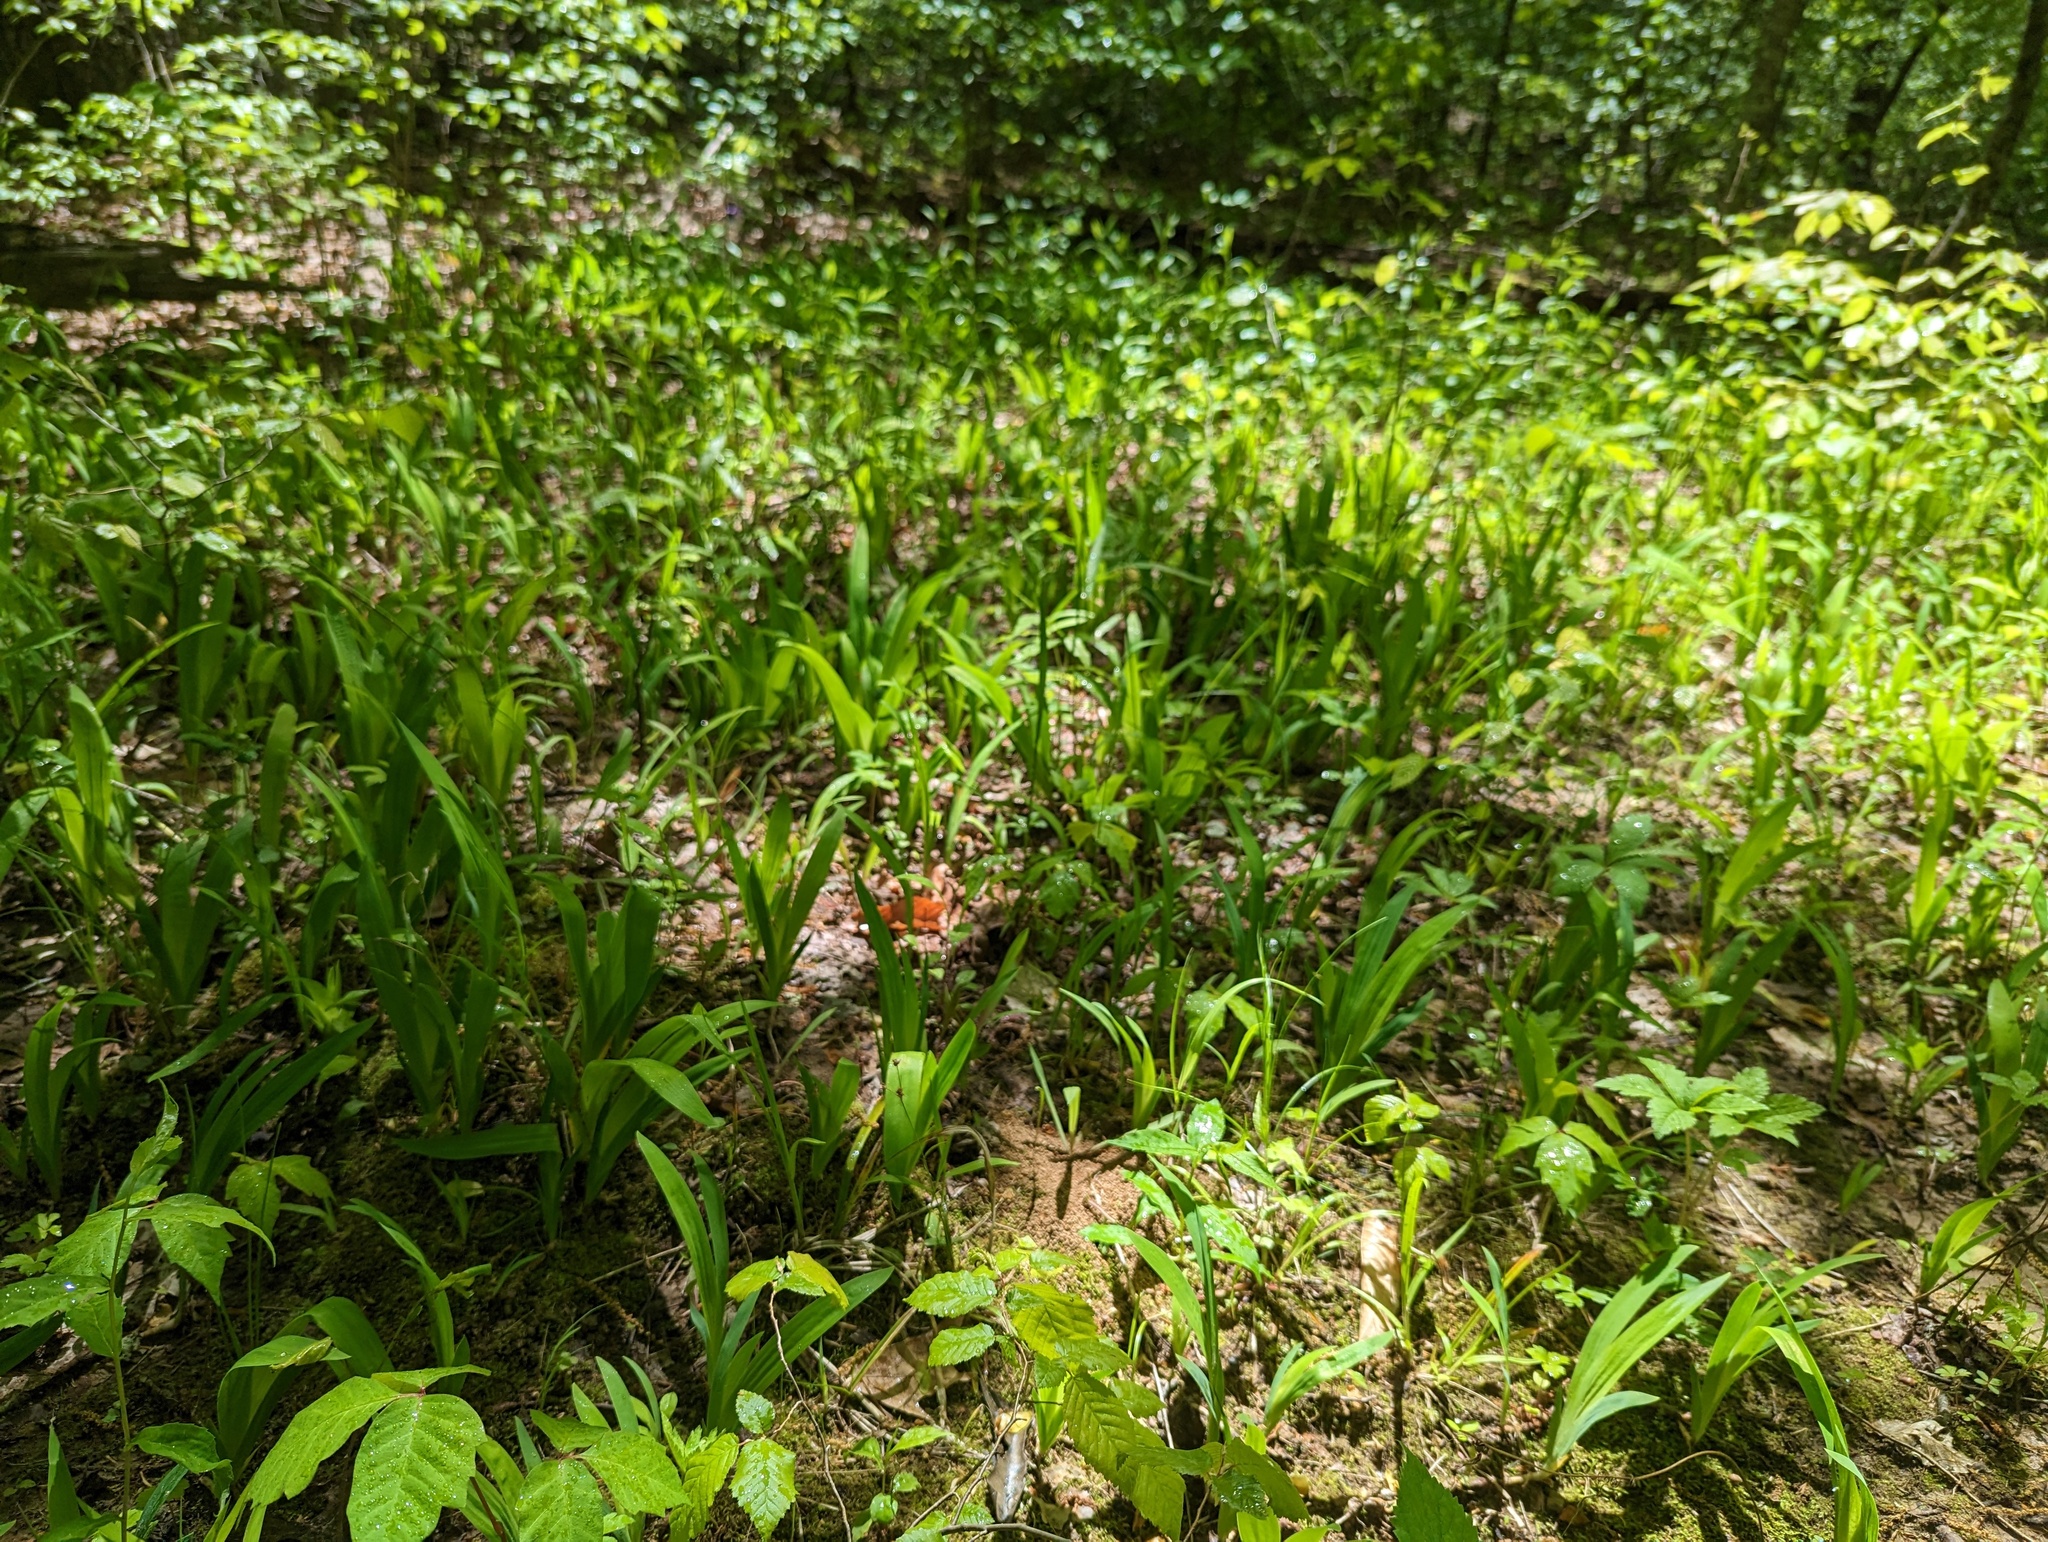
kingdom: Plantae
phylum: Tracheophyta
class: Liliopsida
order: Asparagales
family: Iridaceae
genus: Iris
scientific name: Iris cristata
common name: Crested iris
